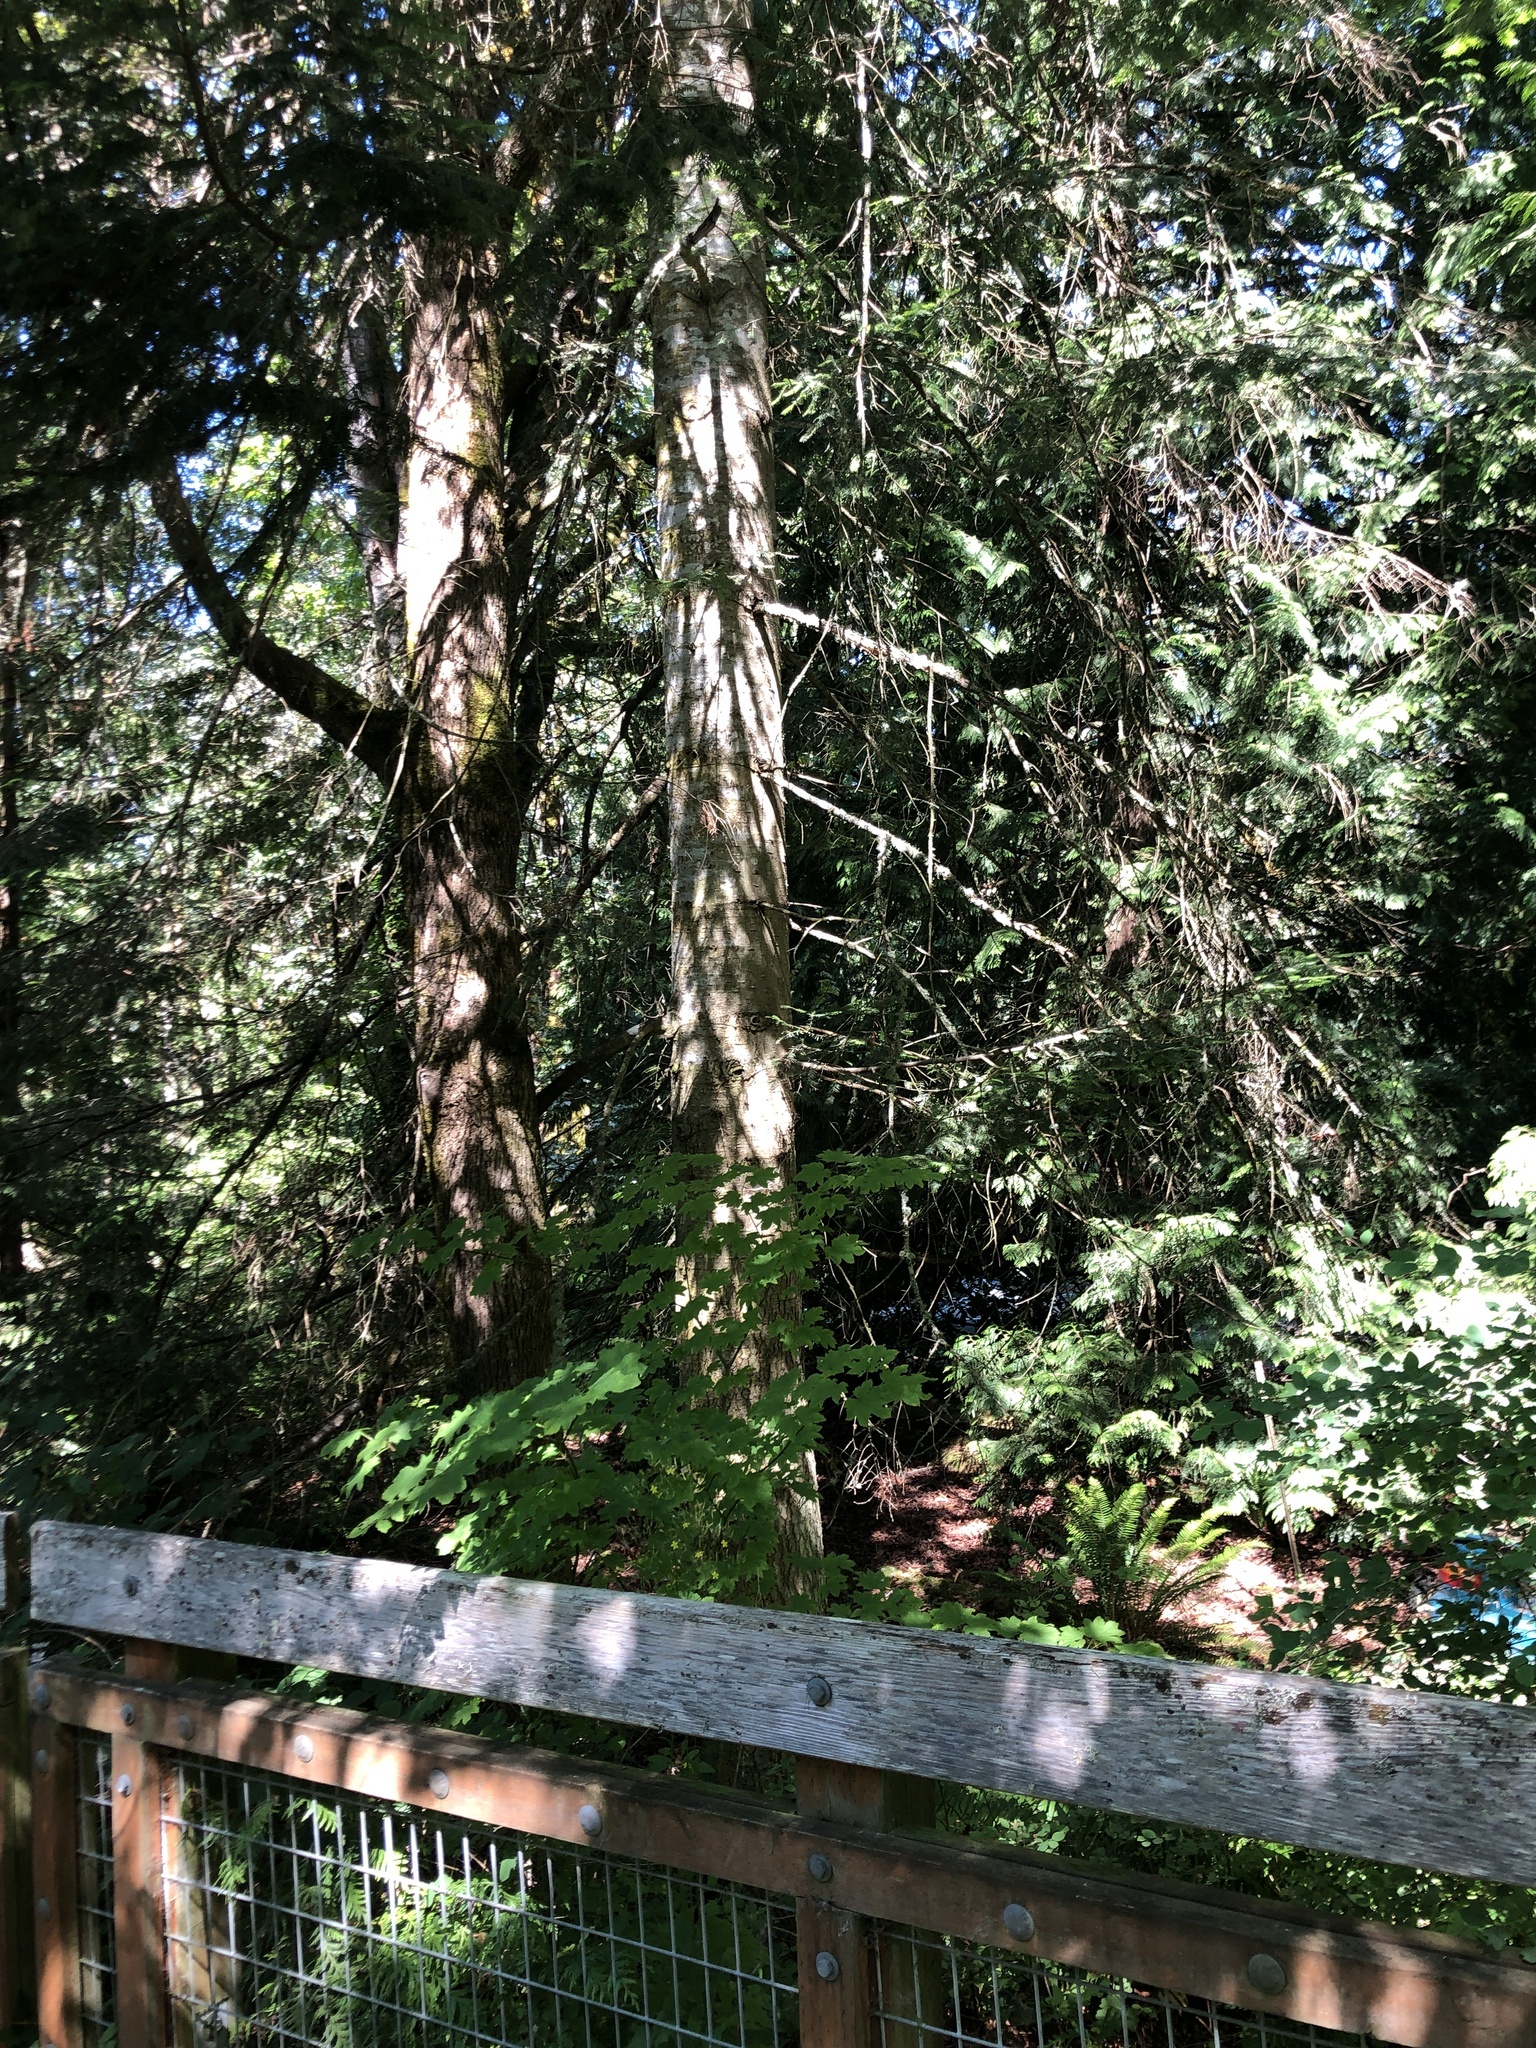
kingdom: Plantae
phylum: Tracheophyta
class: Pinopsida
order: Pinales
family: Pinaceae
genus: Abies
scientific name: Abies grandis
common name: Giant fir
